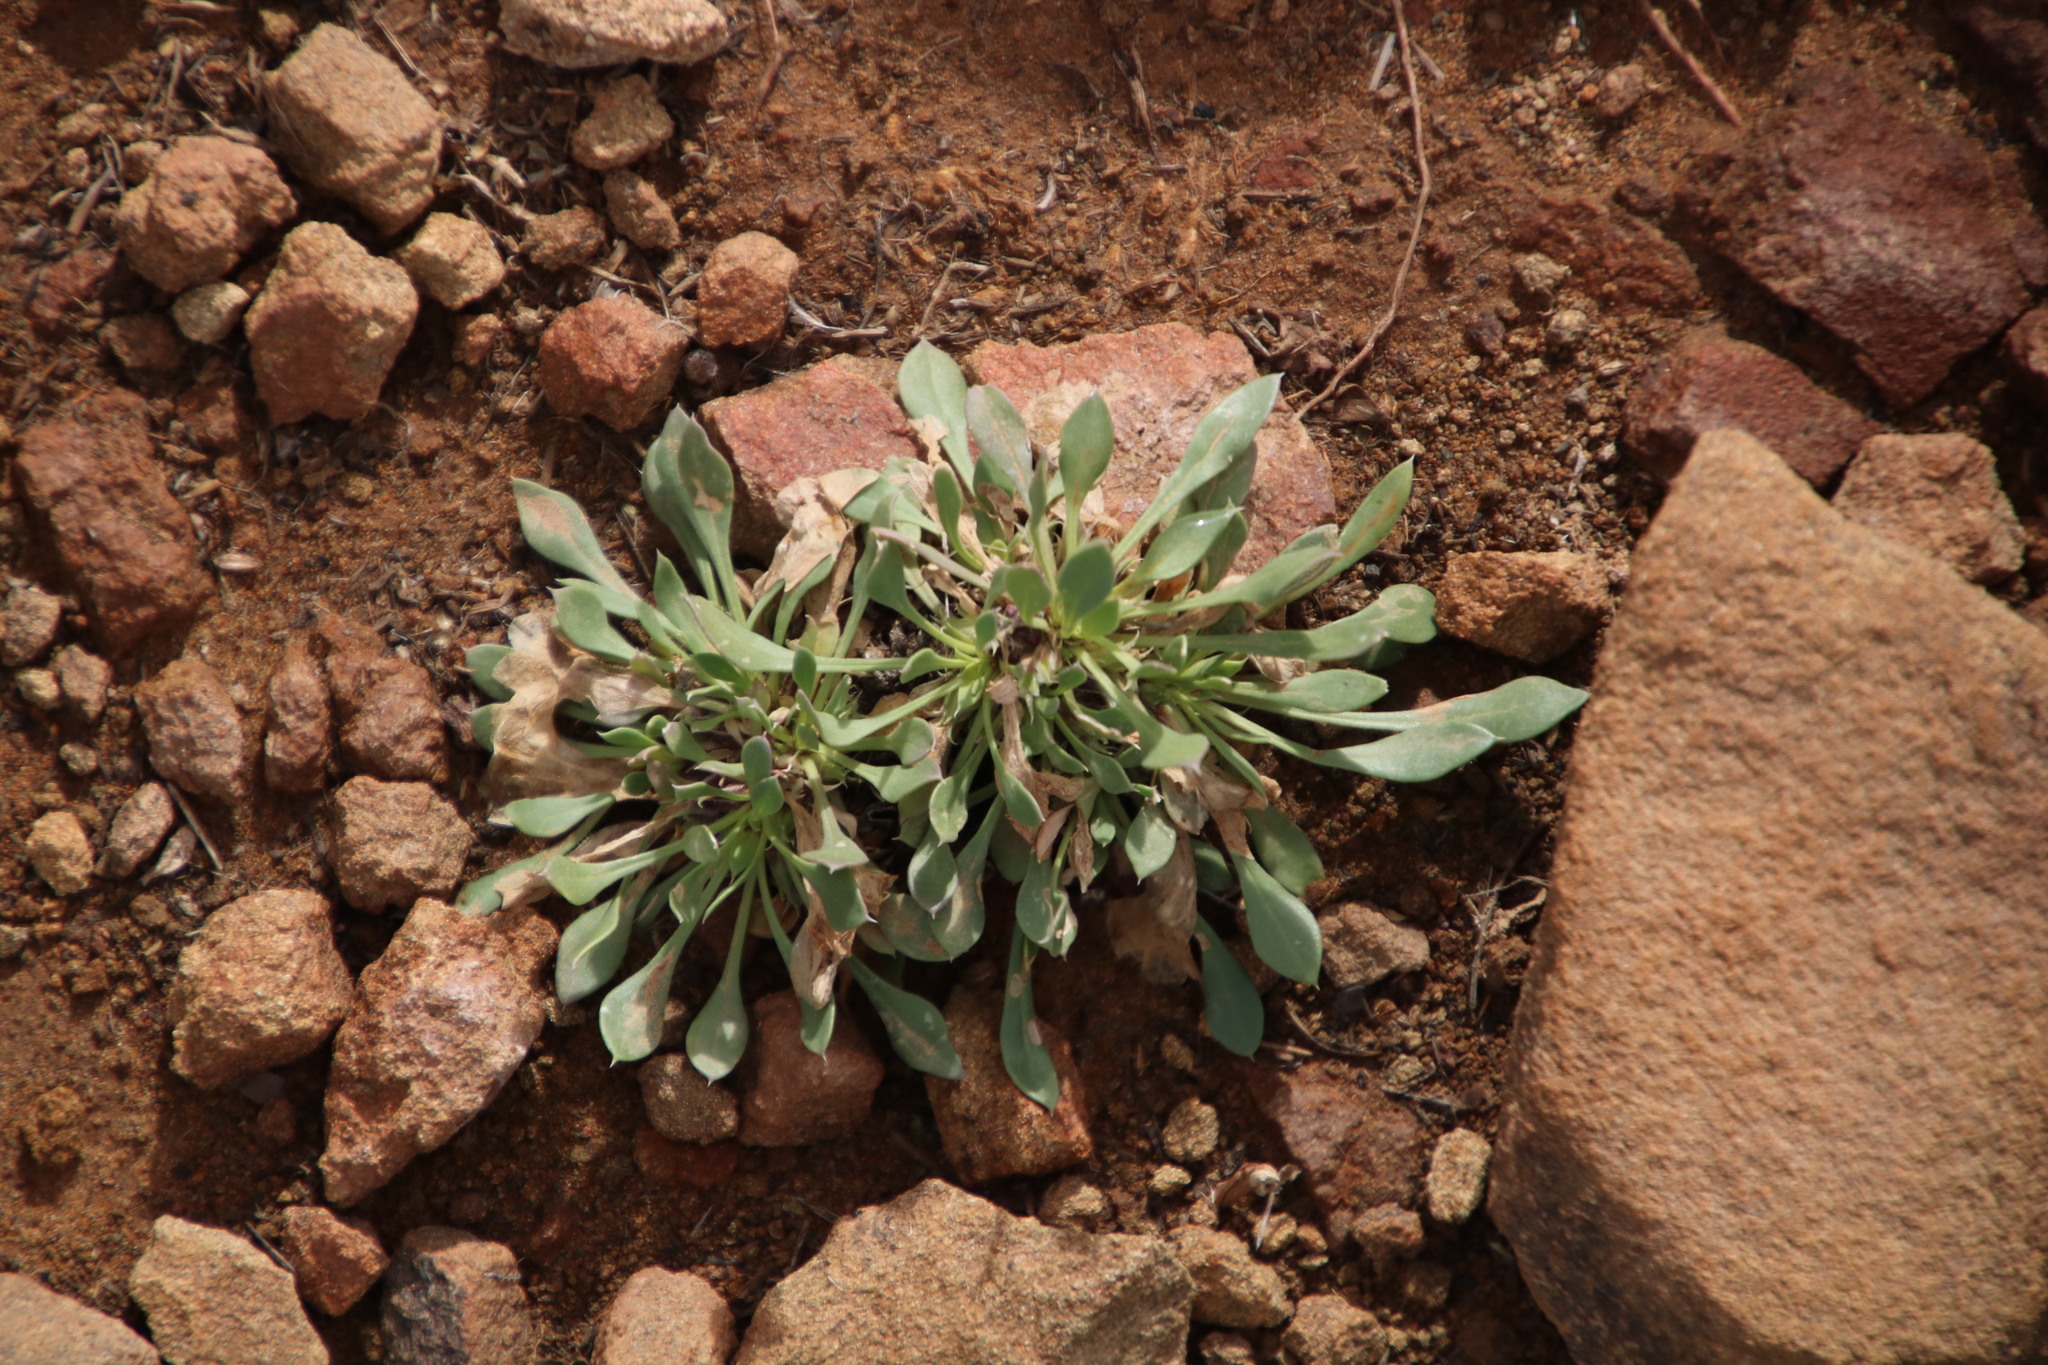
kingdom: Plantae
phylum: Tracheophyta
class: Magnoliopsida
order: Lamiales
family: Scrophulariaceae
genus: Aptosimum
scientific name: Aptosimum indivisum
